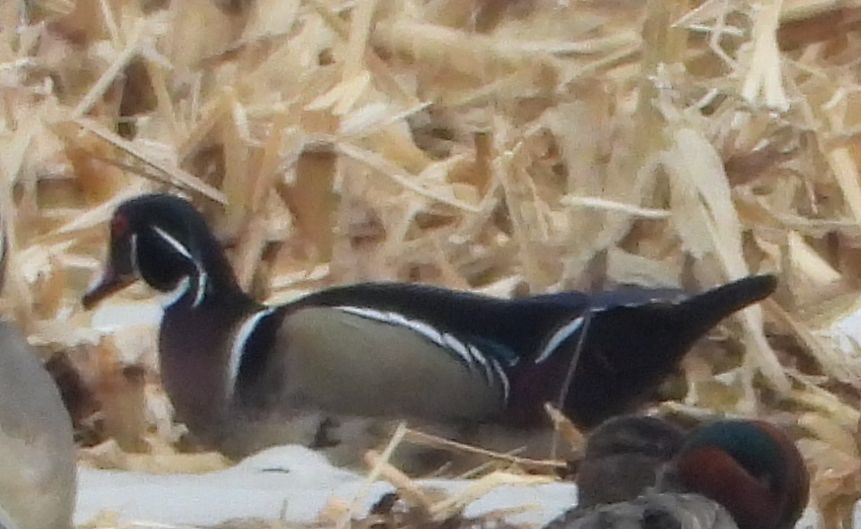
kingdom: Animalia
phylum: Chordata
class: Aves
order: Anseriformes
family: Anatidae
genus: Aix
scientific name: Aix sponsa
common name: Wood duck
